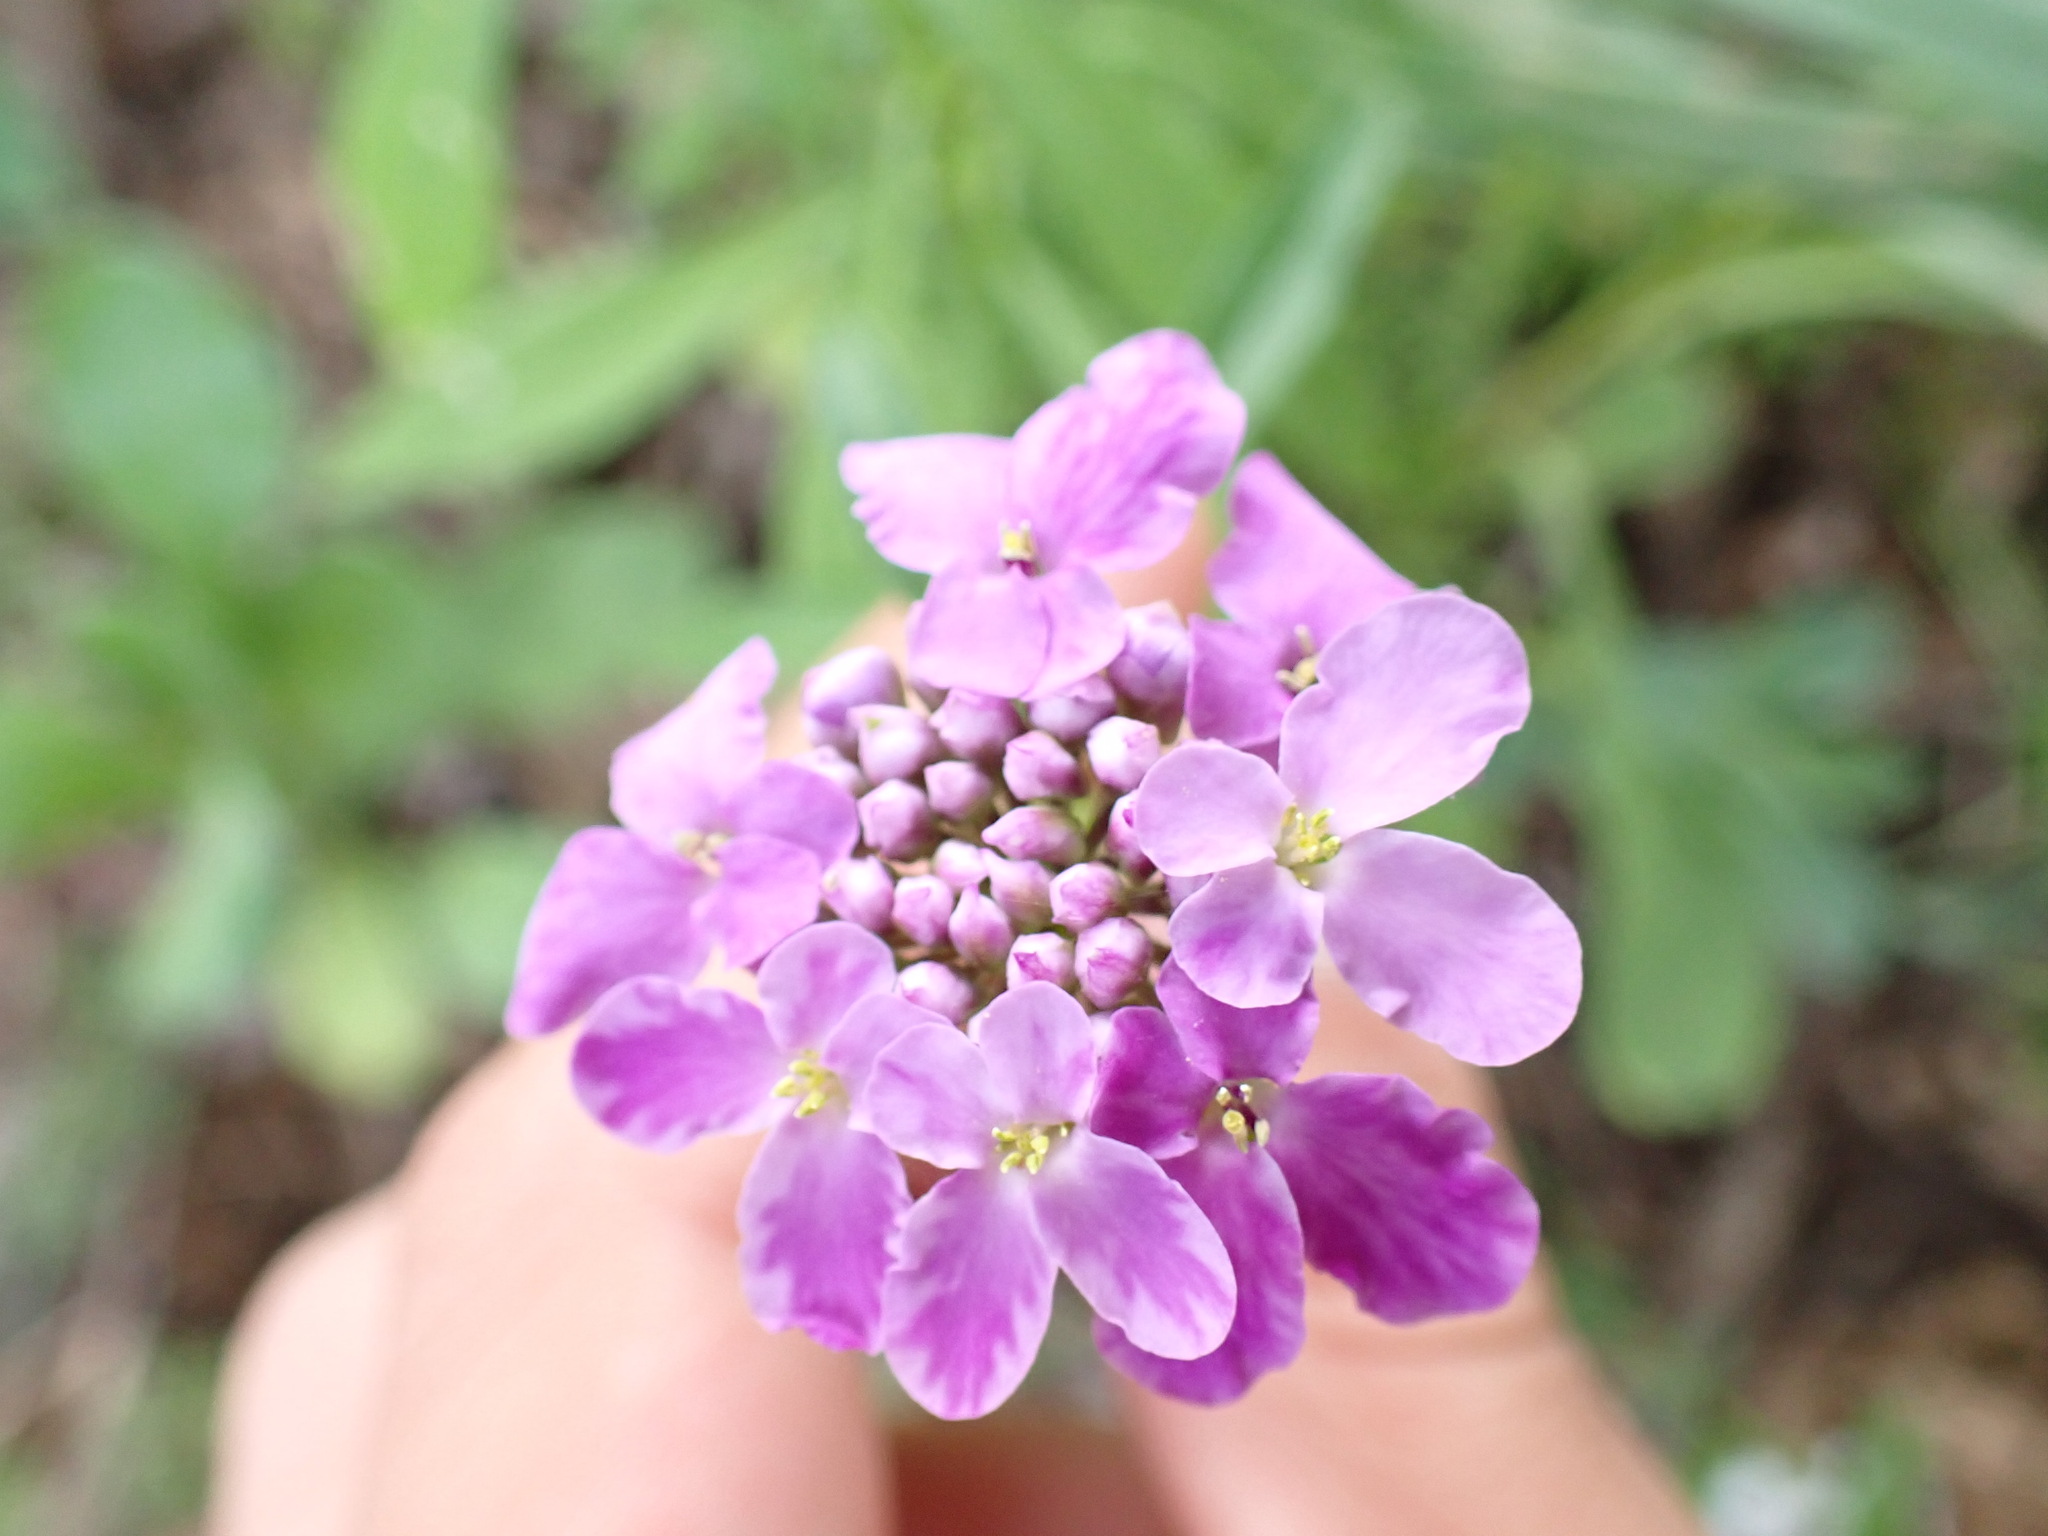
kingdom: Plantae
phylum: Tracheophyta
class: Magnoliopsida
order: Brassicales
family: Brassicaceae
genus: Iberis
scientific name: Iberis umbellata
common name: Globe candytuft
